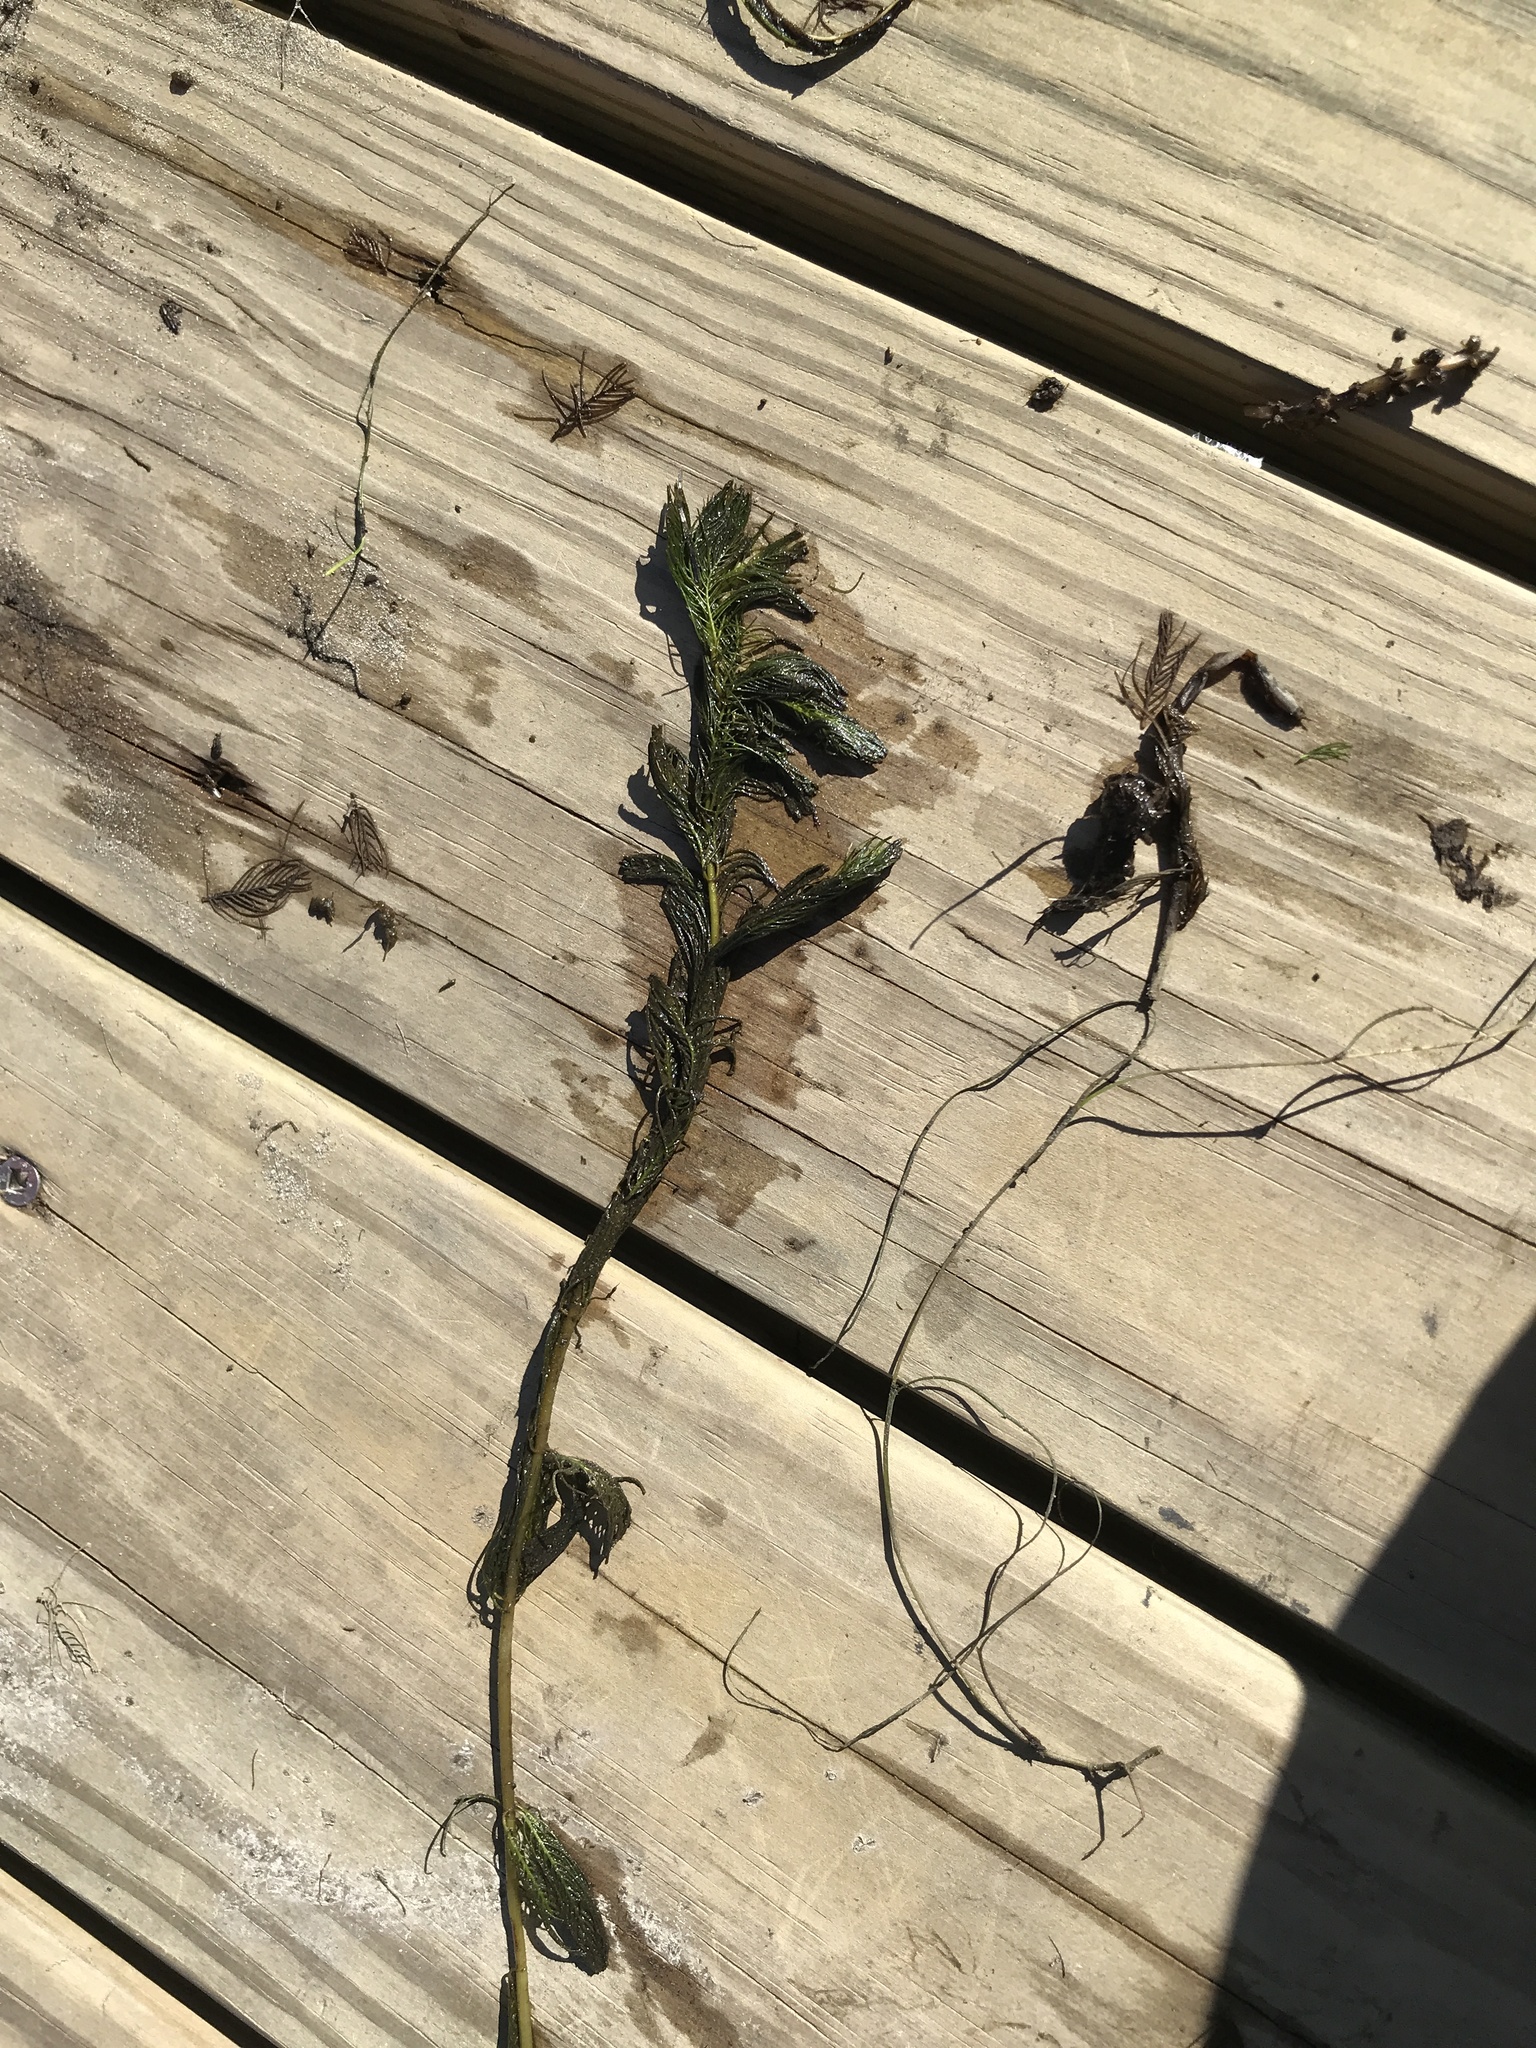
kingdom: Plantae
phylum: Tracheophyta
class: Magnoliopsida
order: Saxifragales
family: Haloragaceae
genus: Myriophyllum
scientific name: Myriophyllum spicatum
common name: Spiked water-milfoil
